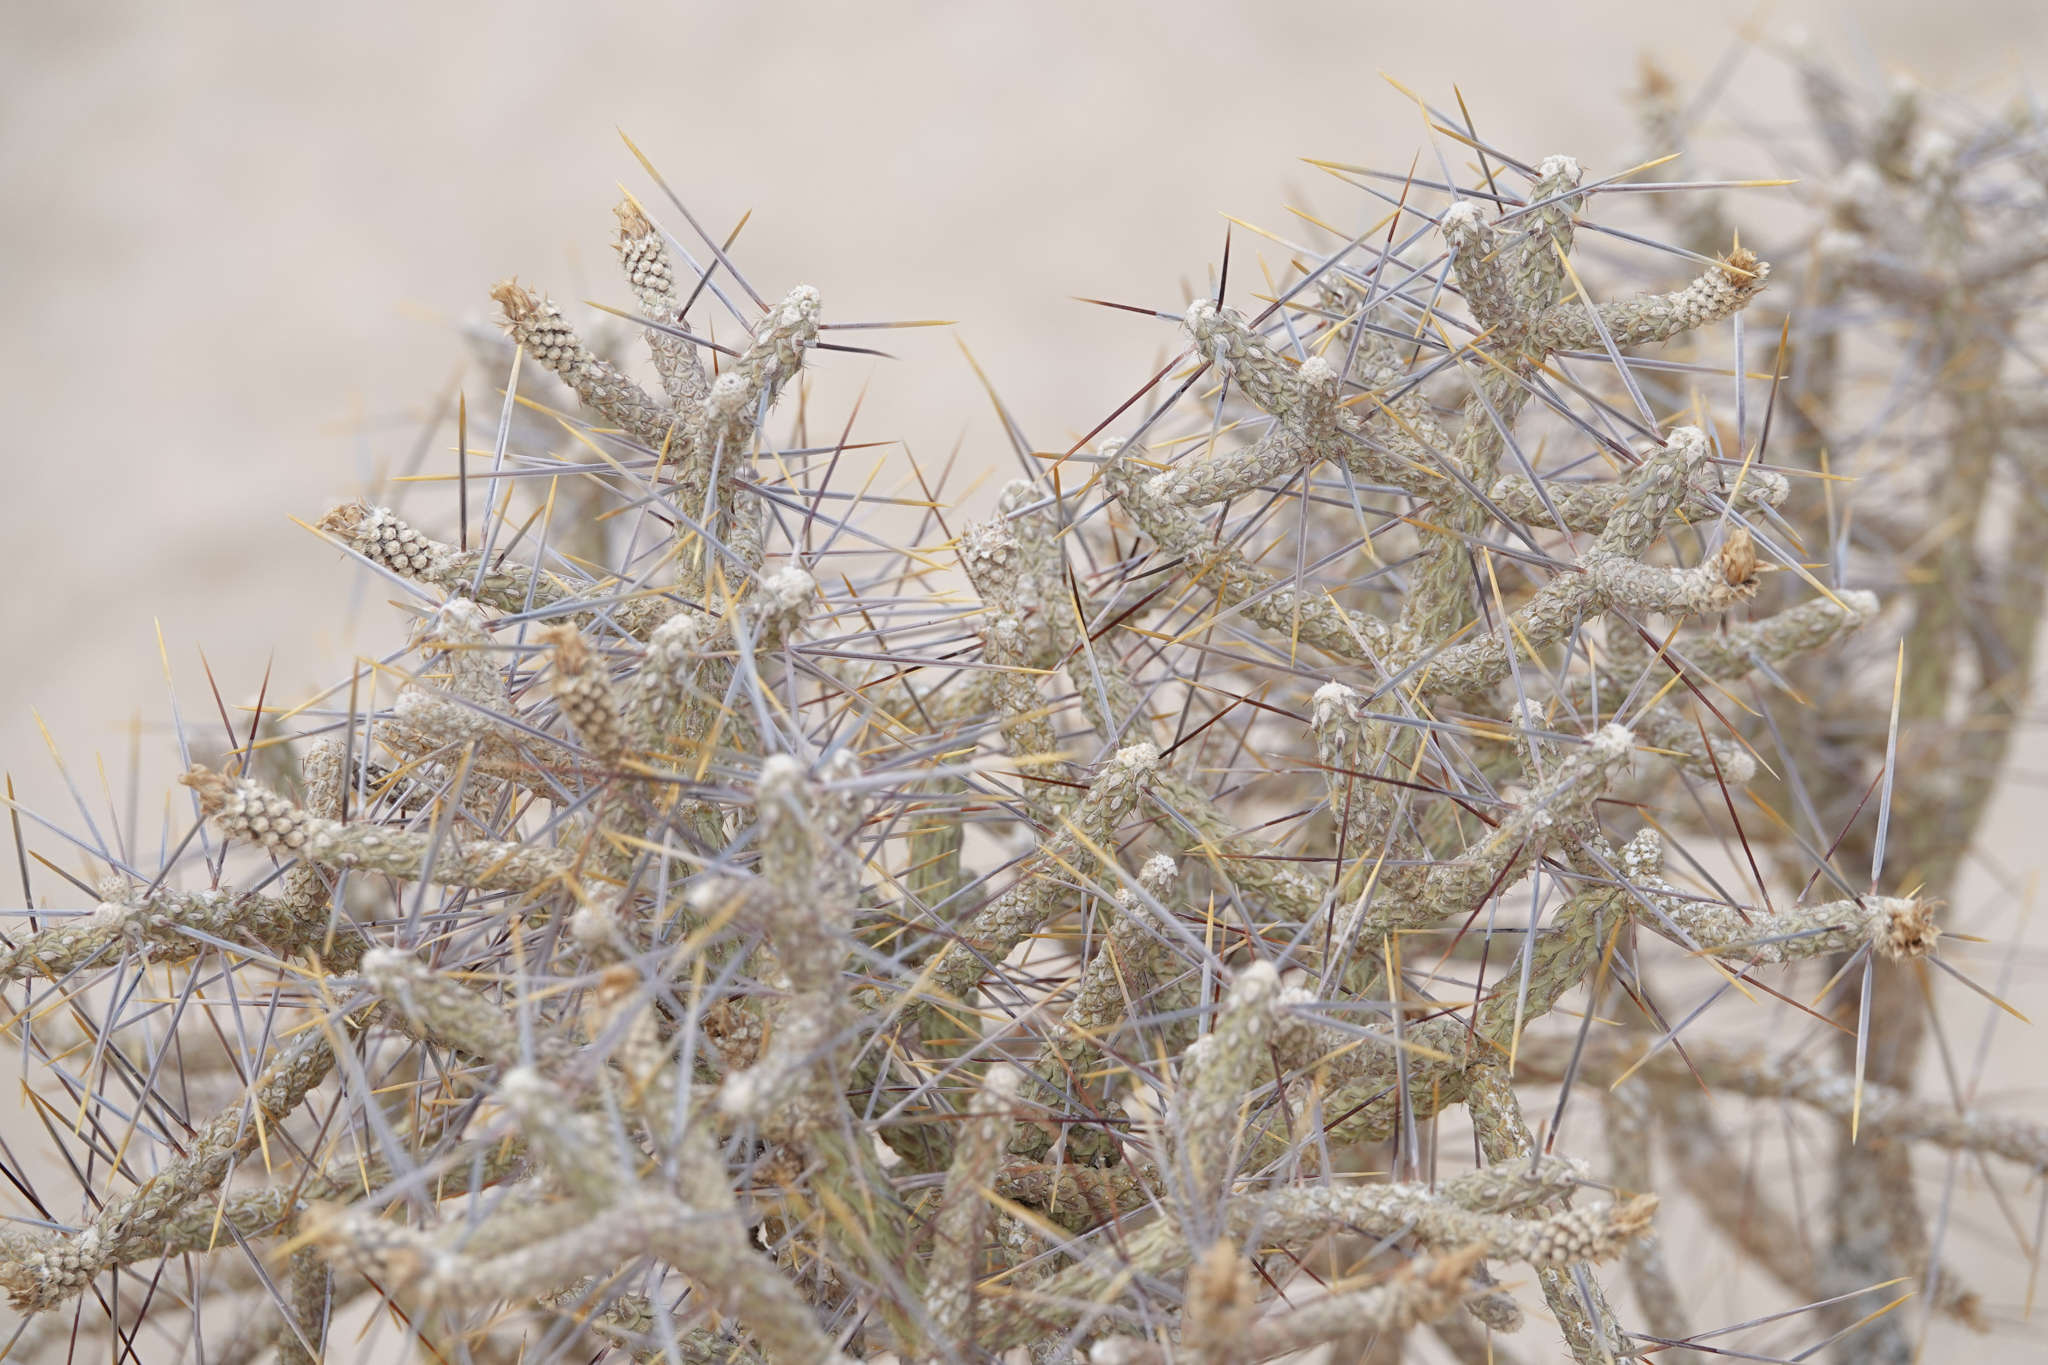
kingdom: Plantae
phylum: Tracheophyta
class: Magnoliopsida
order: Caryophyllales
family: Cactaceae
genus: Cylindropuntia
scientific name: Cylindropuntia ramosissima
